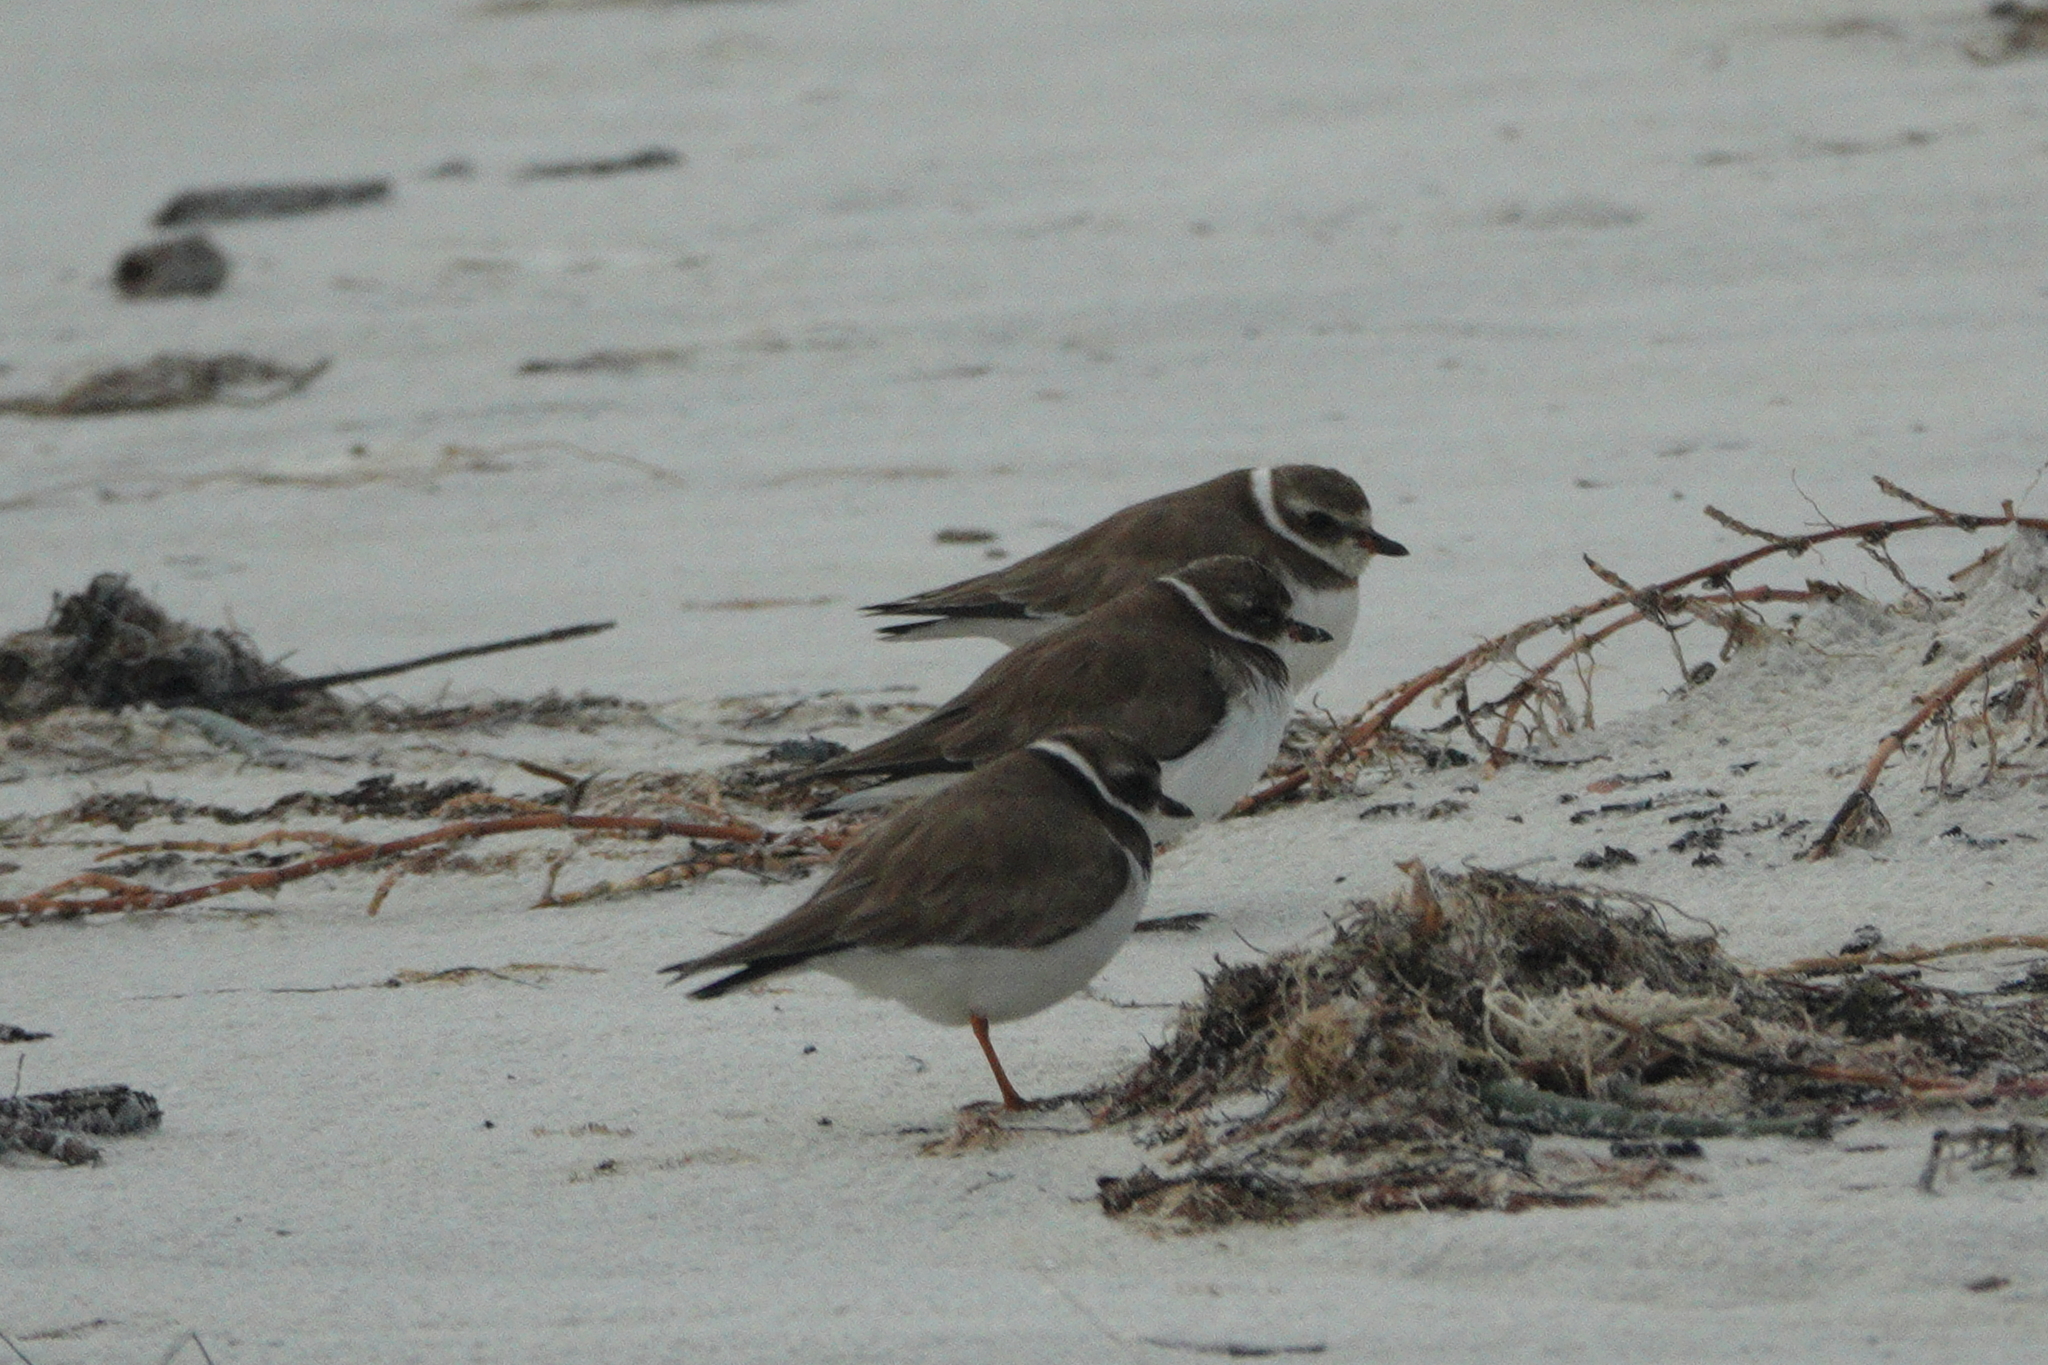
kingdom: Animalia
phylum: Chordata
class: Aves
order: Charadriiformes
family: Charadriidae
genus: Charadrius
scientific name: Charadrius semipalmatus
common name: Semipalmated plover
